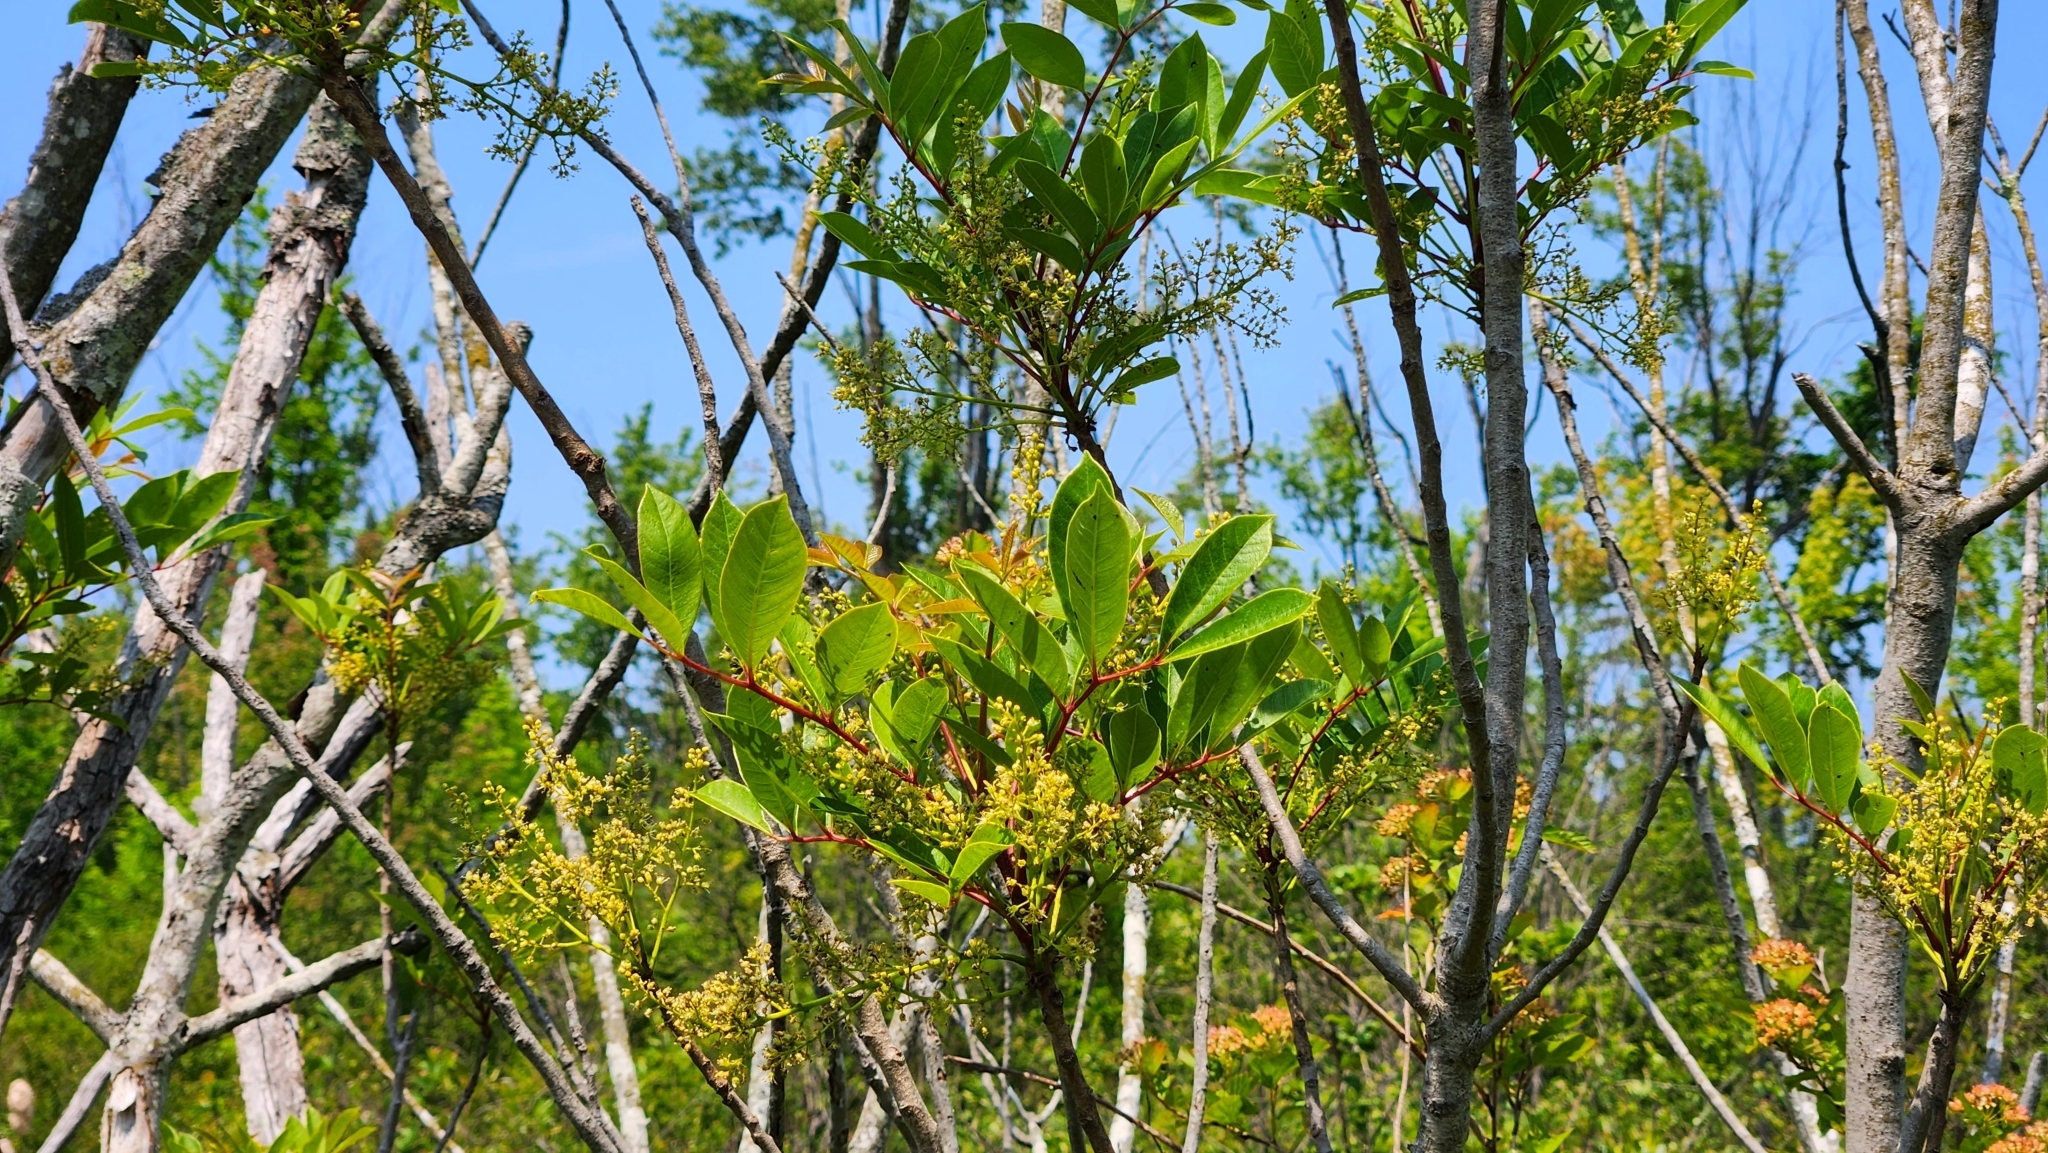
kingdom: Plantae
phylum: Tracheophyta
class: Magnoliopsida
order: Sapindales
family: Anacardiaceae
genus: Toxicodendron
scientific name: Toxicodendron vernix
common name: Poison sumac
